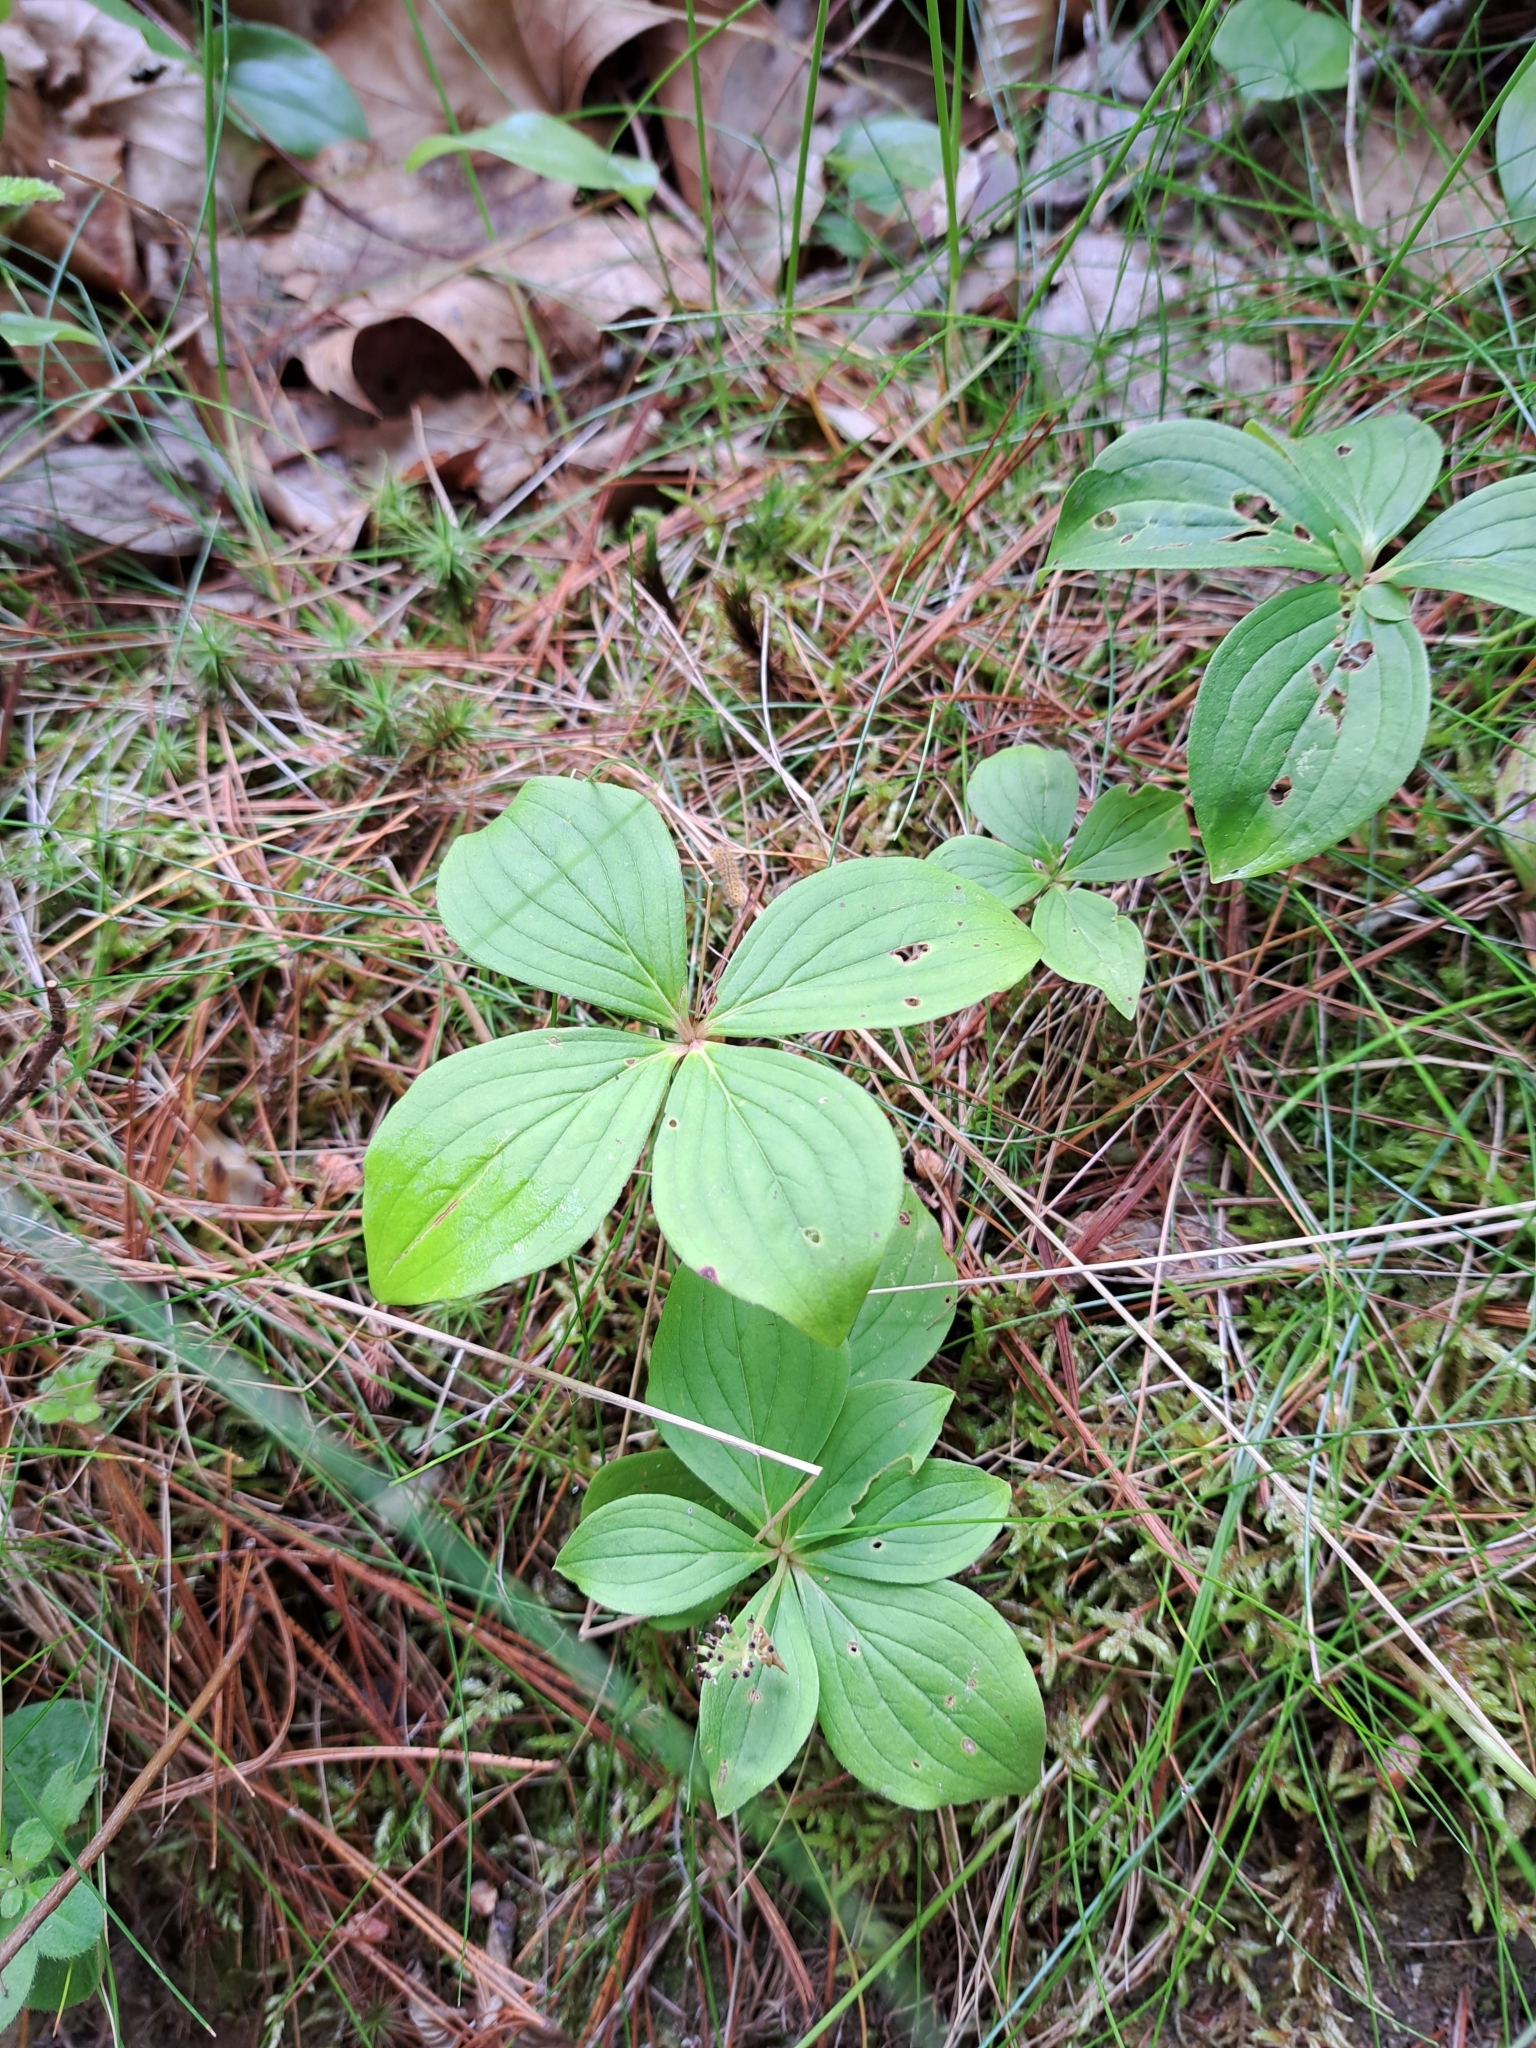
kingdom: Plantae
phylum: Tracheophyta
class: Magnoliopsida
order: Cornales
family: Cornaceae
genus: Cornus
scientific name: Cornus canadensis
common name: Creeping dogwood
